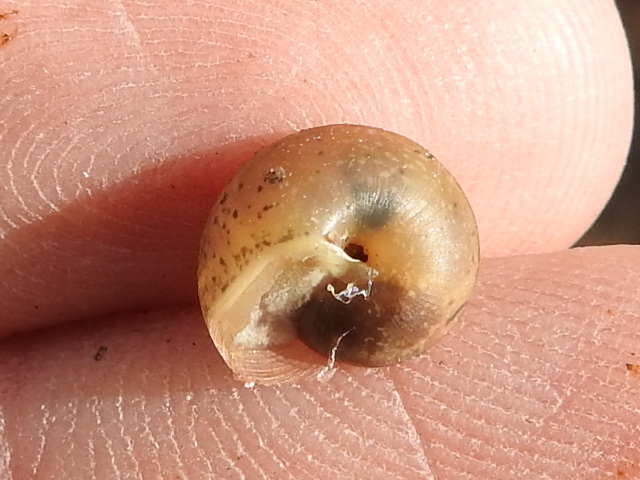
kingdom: Animalia
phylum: Mollusca
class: Gastropoda
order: Stylommatophora
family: Camaenidae
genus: Bradybaena
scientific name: Bradybaena similaris
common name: Asian trampsnail
